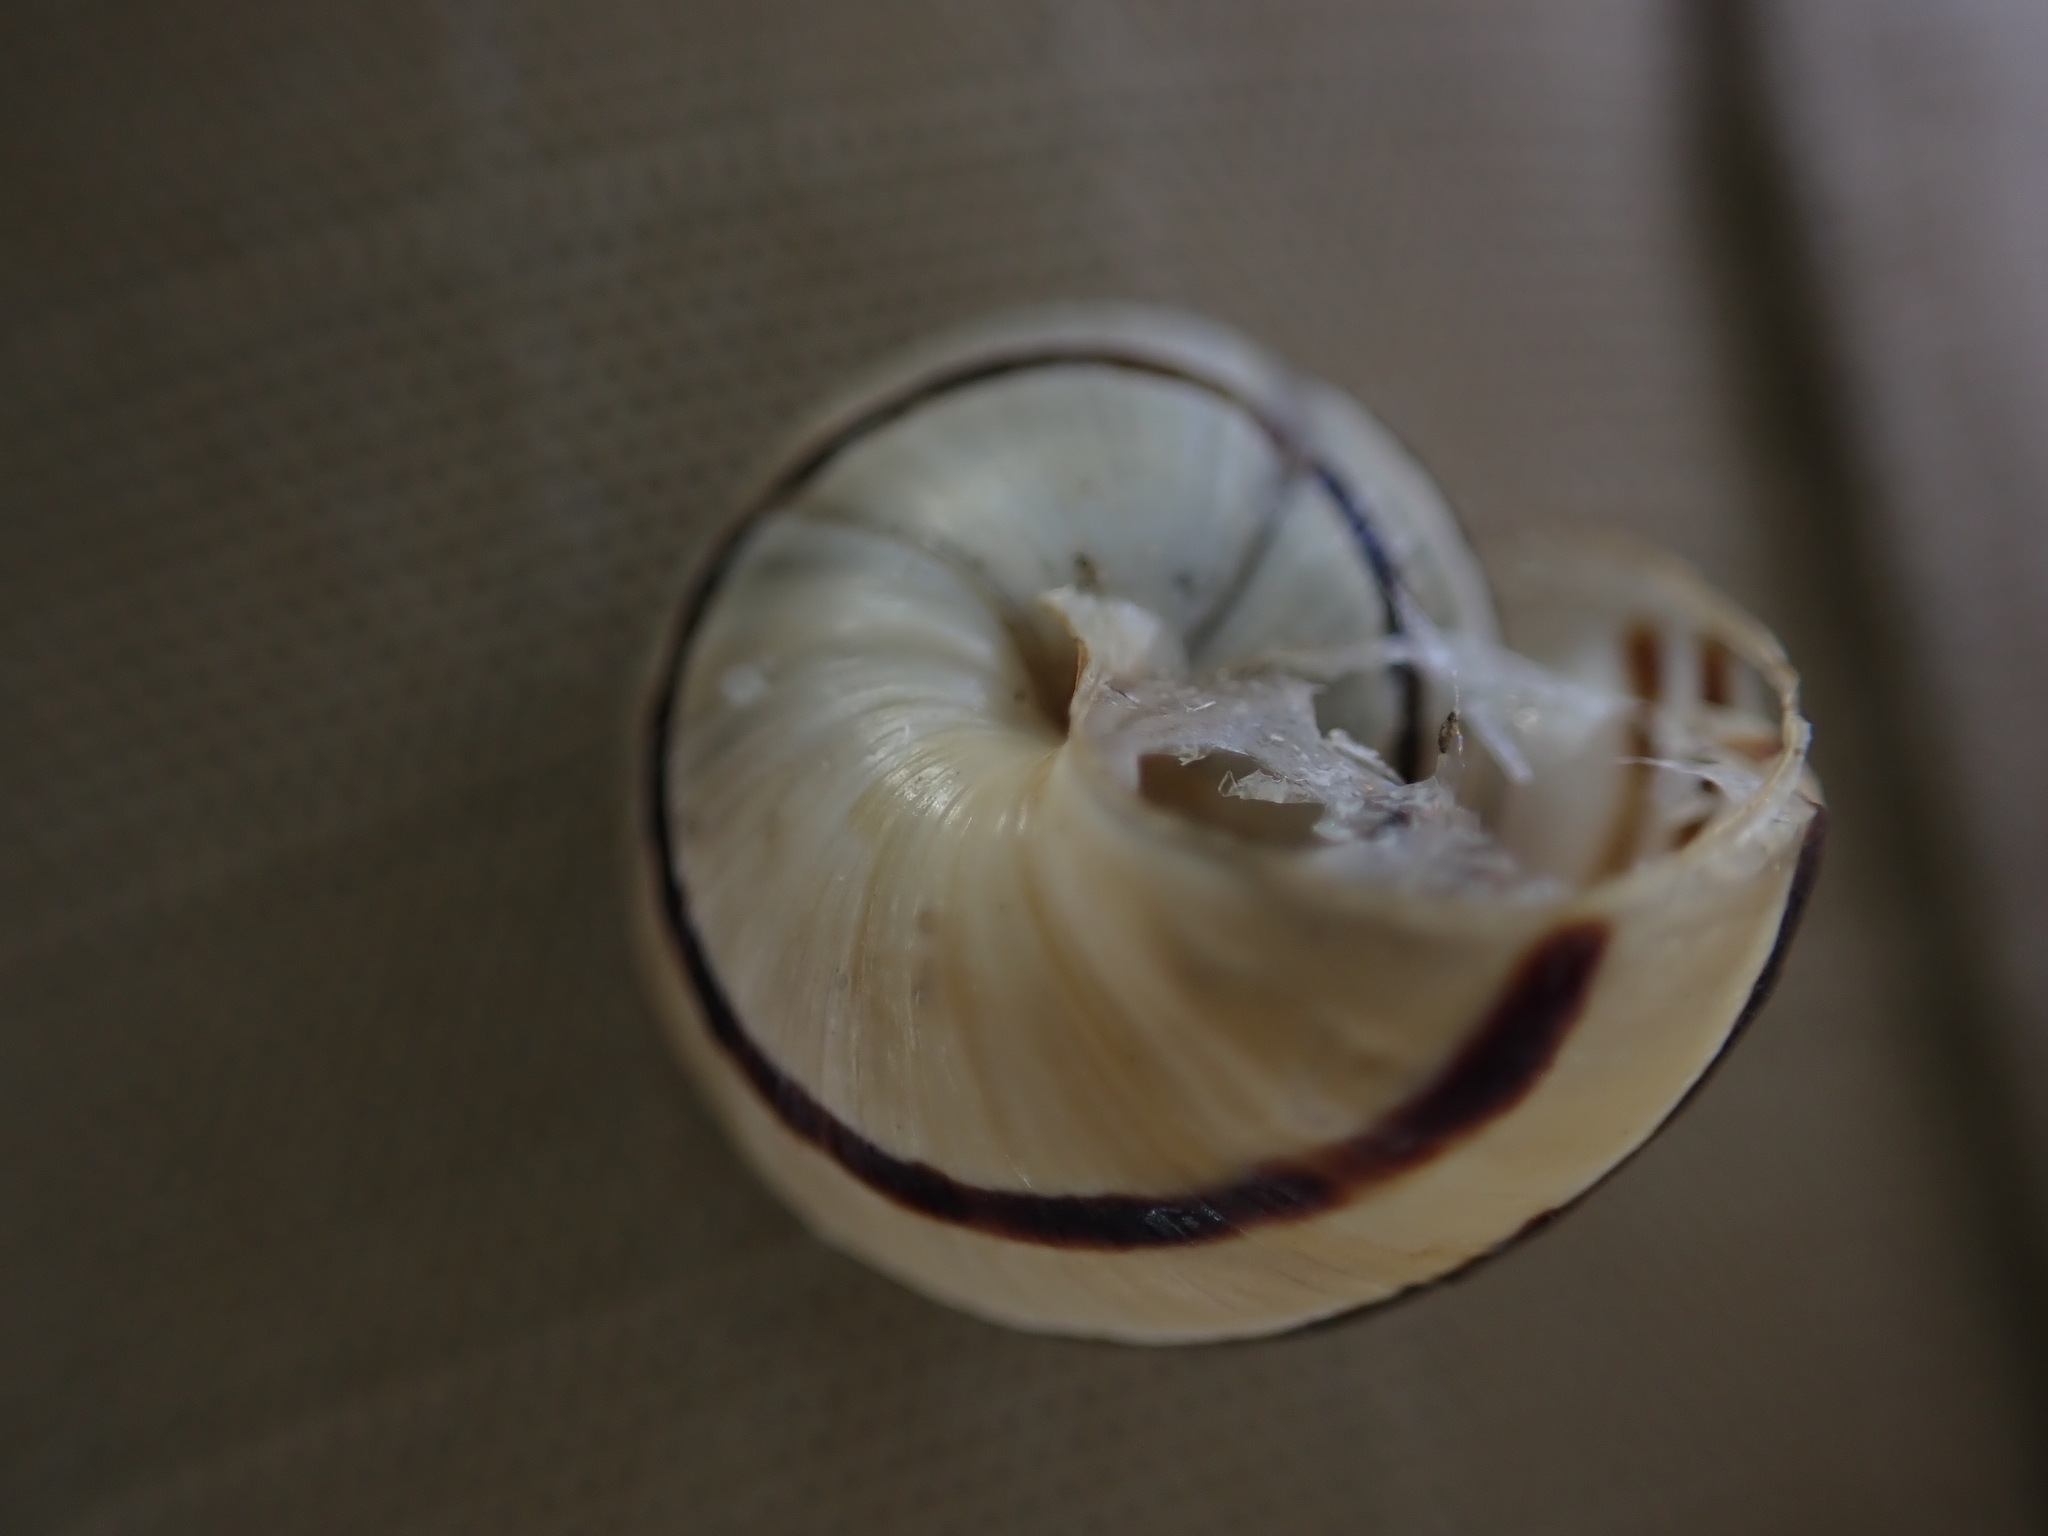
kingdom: Animalia
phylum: Mollusca
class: Gastropoda
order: Stylommatophora
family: Helicidae
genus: Pseudotachea
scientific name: Pseudotachea splendida
